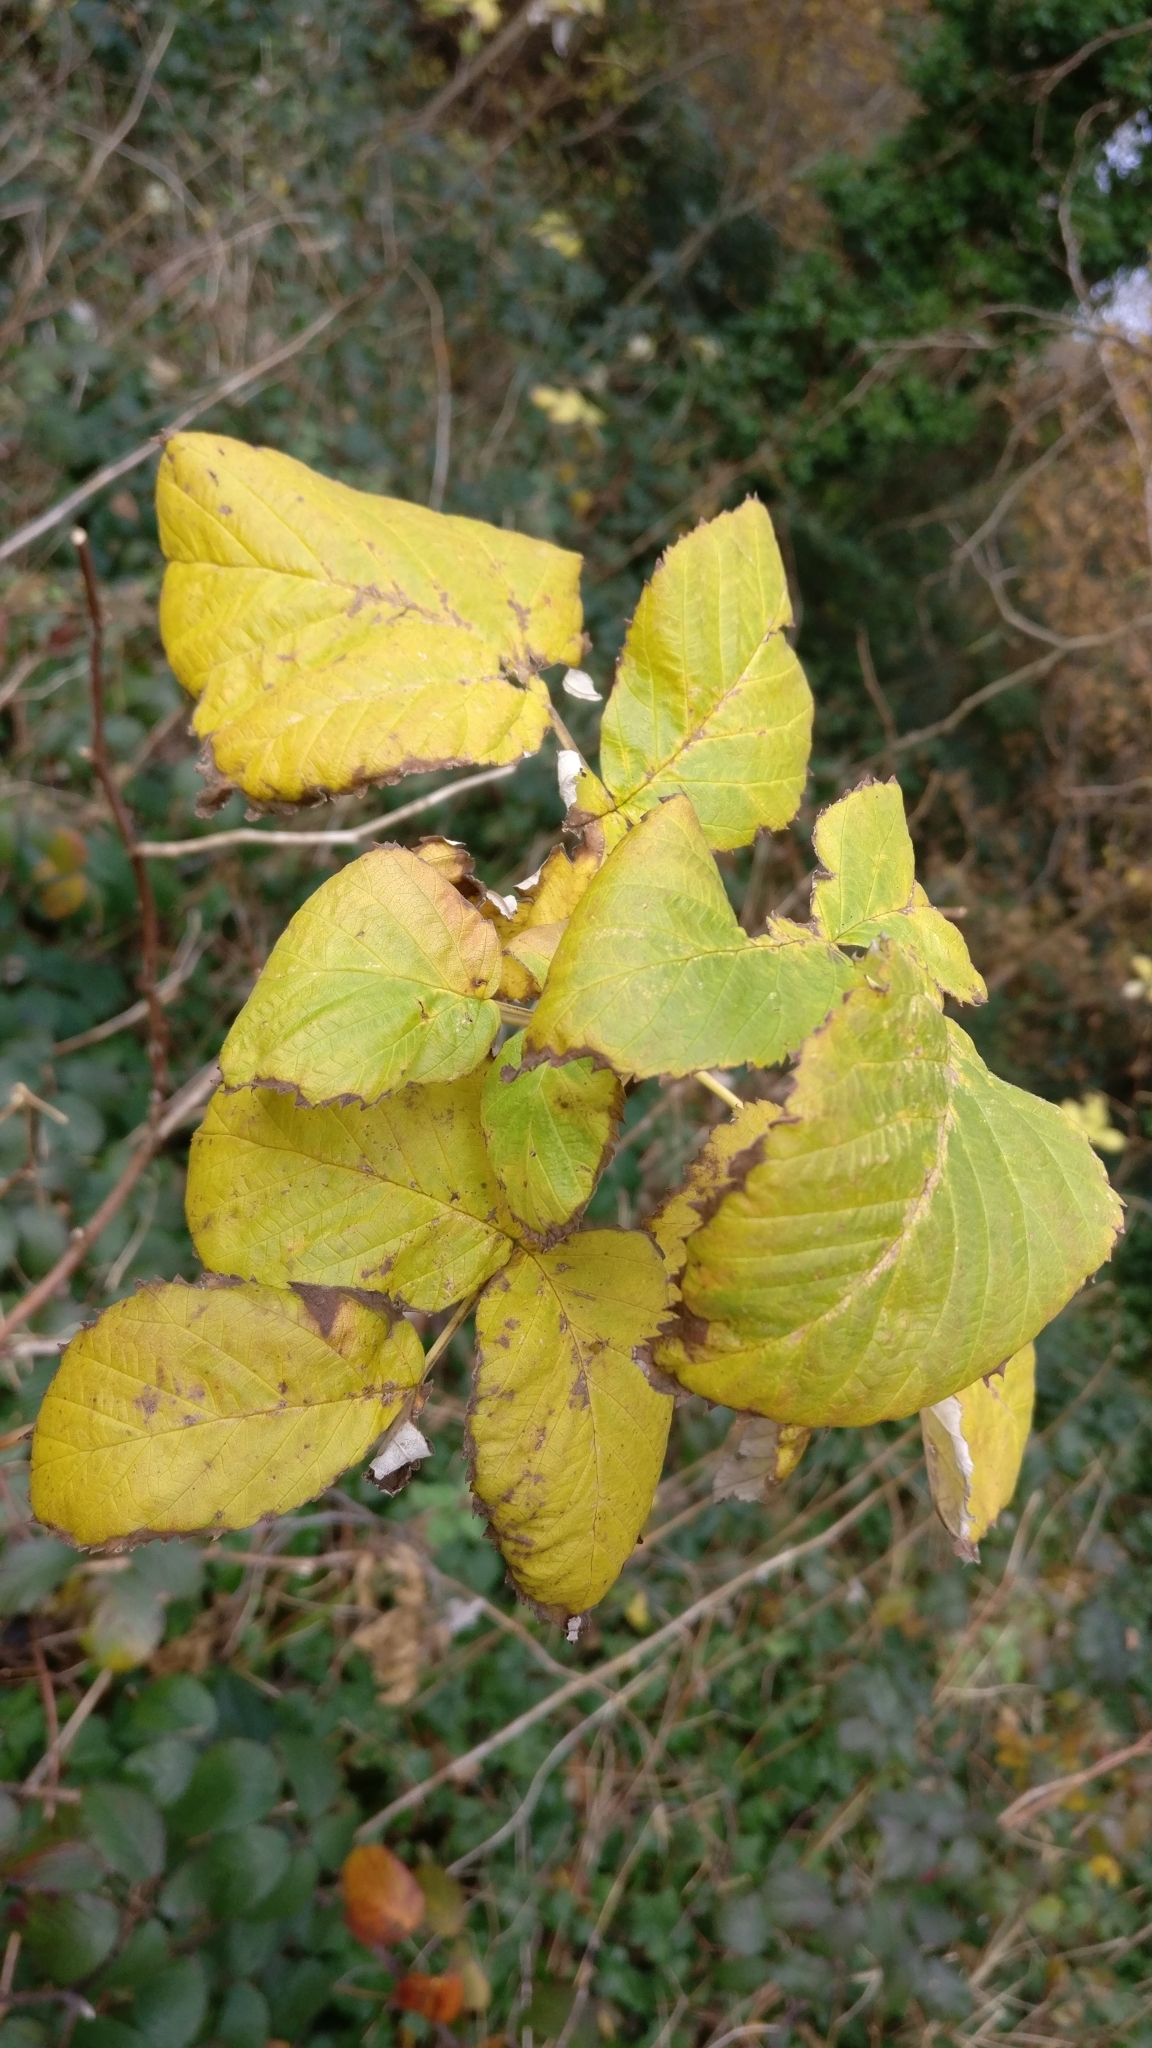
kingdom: Plantae
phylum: Tracheophyta
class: Magnoliopsida
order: Rosales
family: Rosaceae
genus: Rubus
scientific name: Rubus idaeus
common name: Raspberry
